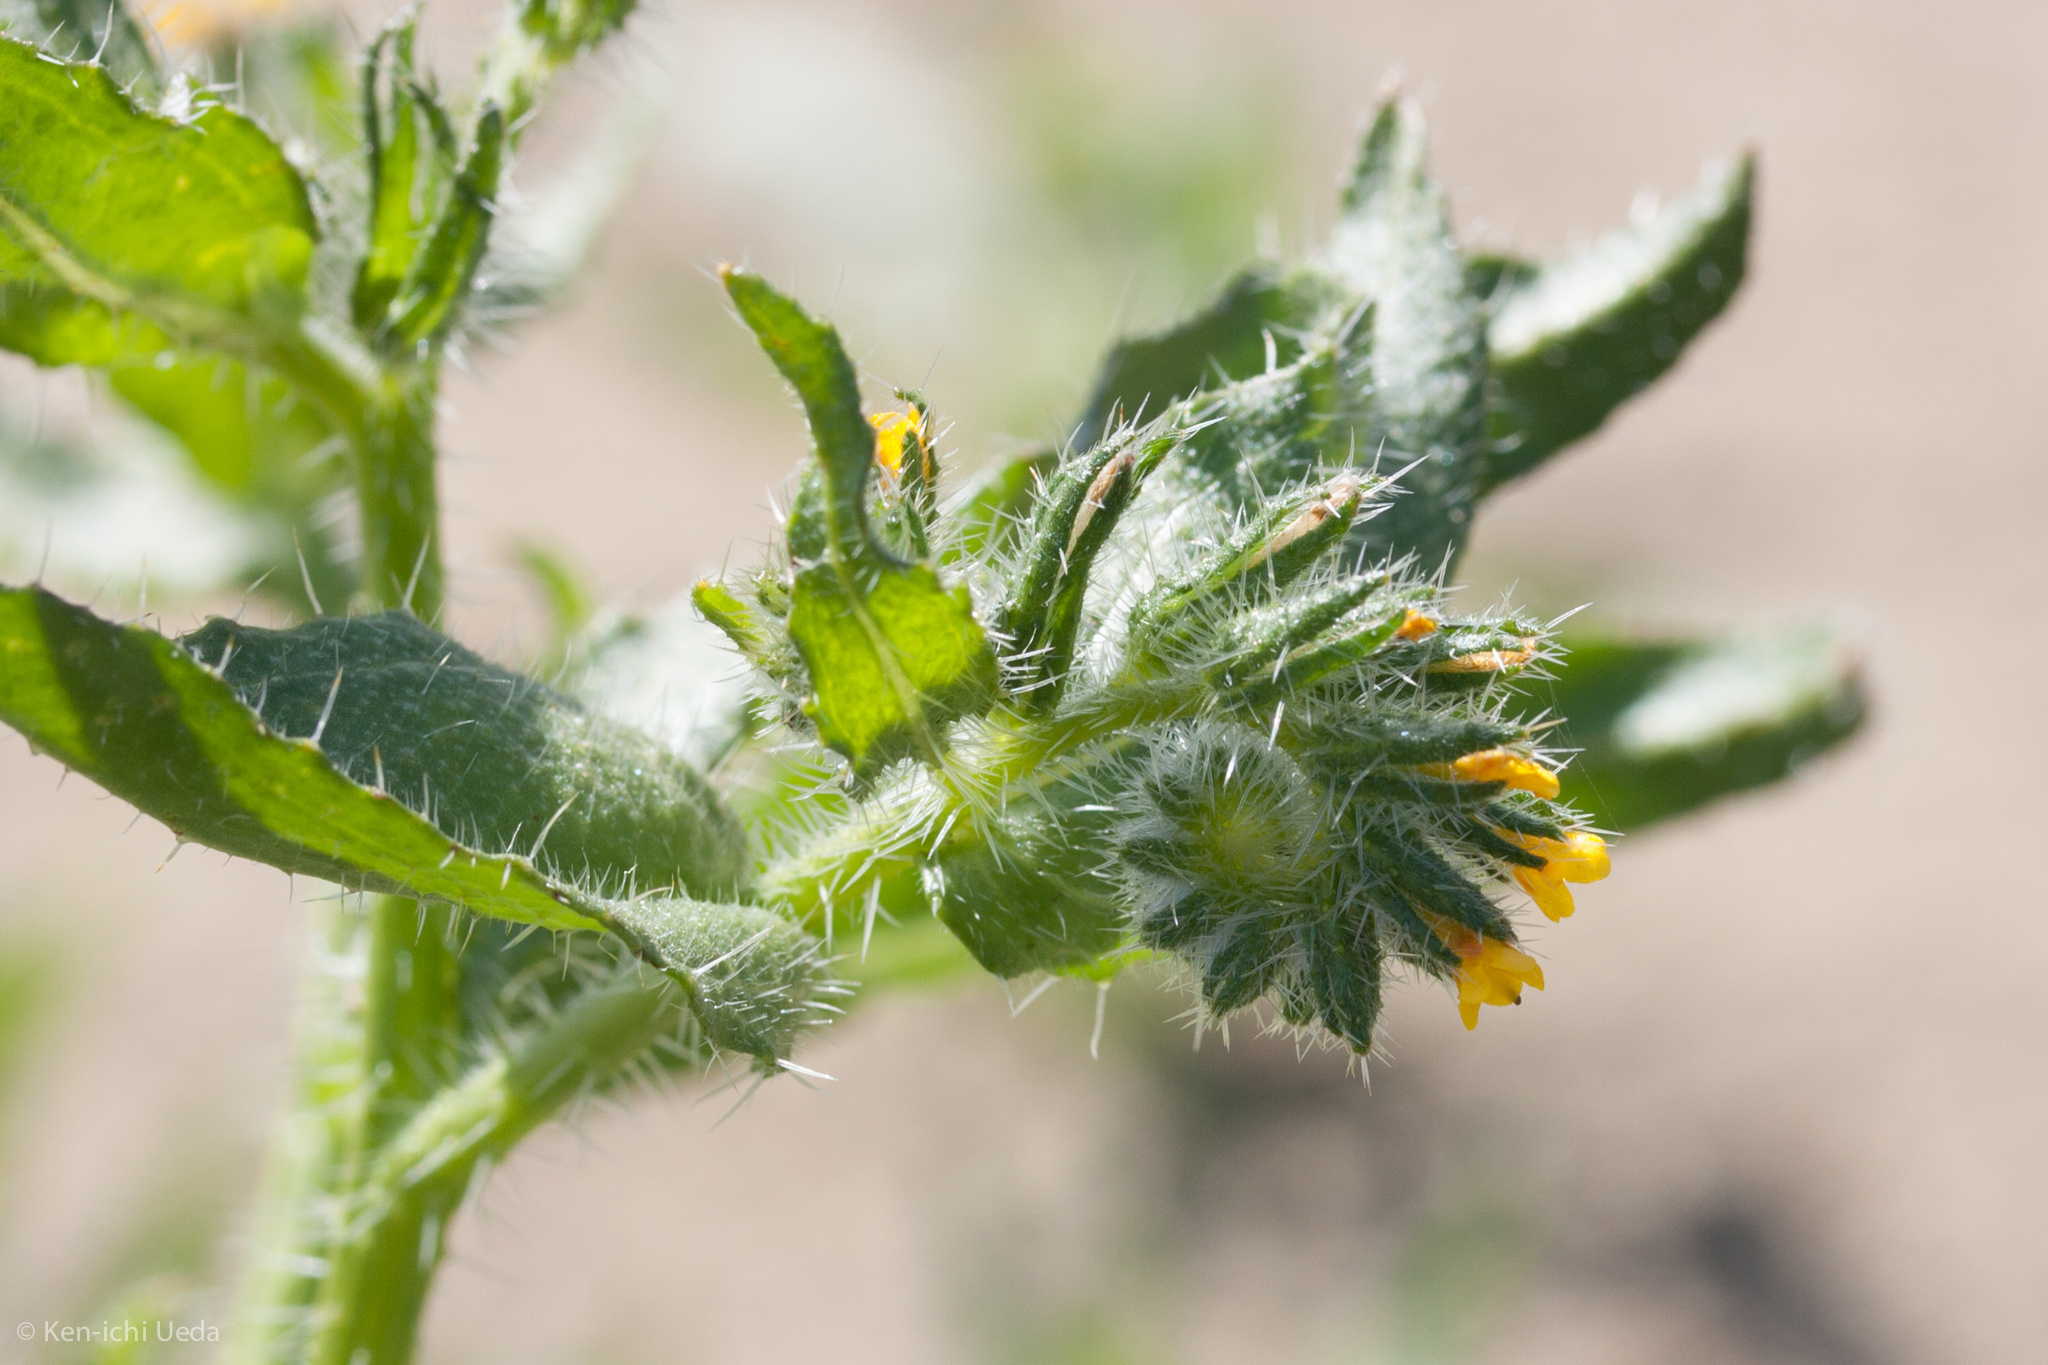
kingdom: Plantae
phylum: Tracheophyta
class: Magnoliopsida
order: Boraginales
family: Boraginaceae
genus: Amsinckia
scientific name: Amsinckia
